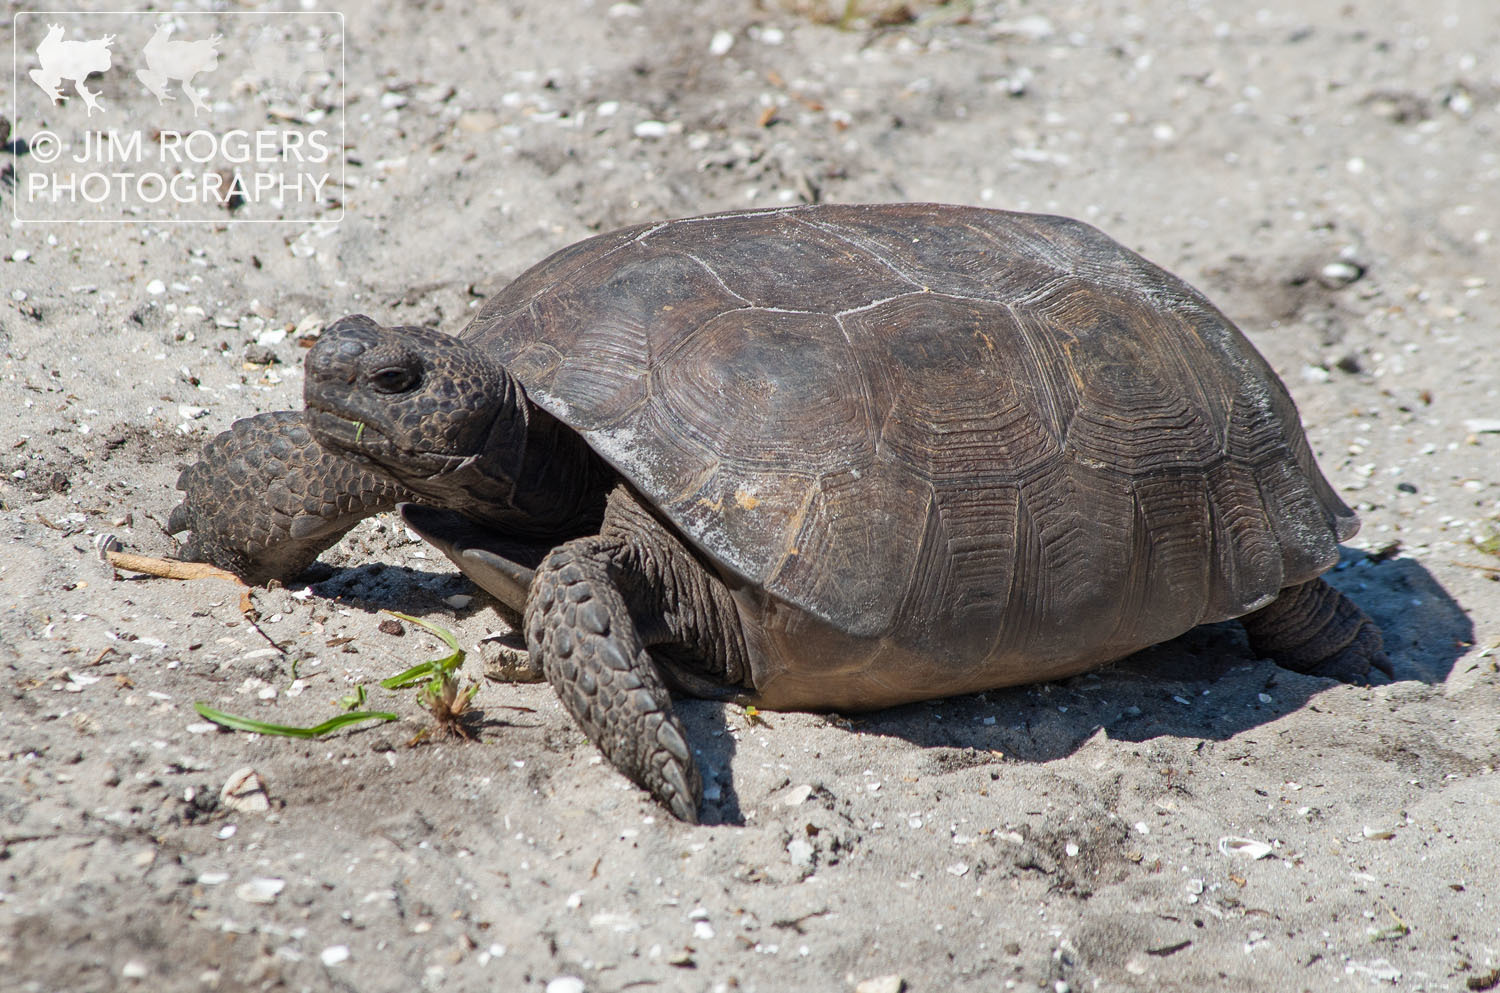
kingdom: Animalia
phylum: Chordata
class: Testudines
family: Testudinidae
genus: Gopherus
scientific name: Gopherus polyphemus
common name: Florida gopher tortoise
